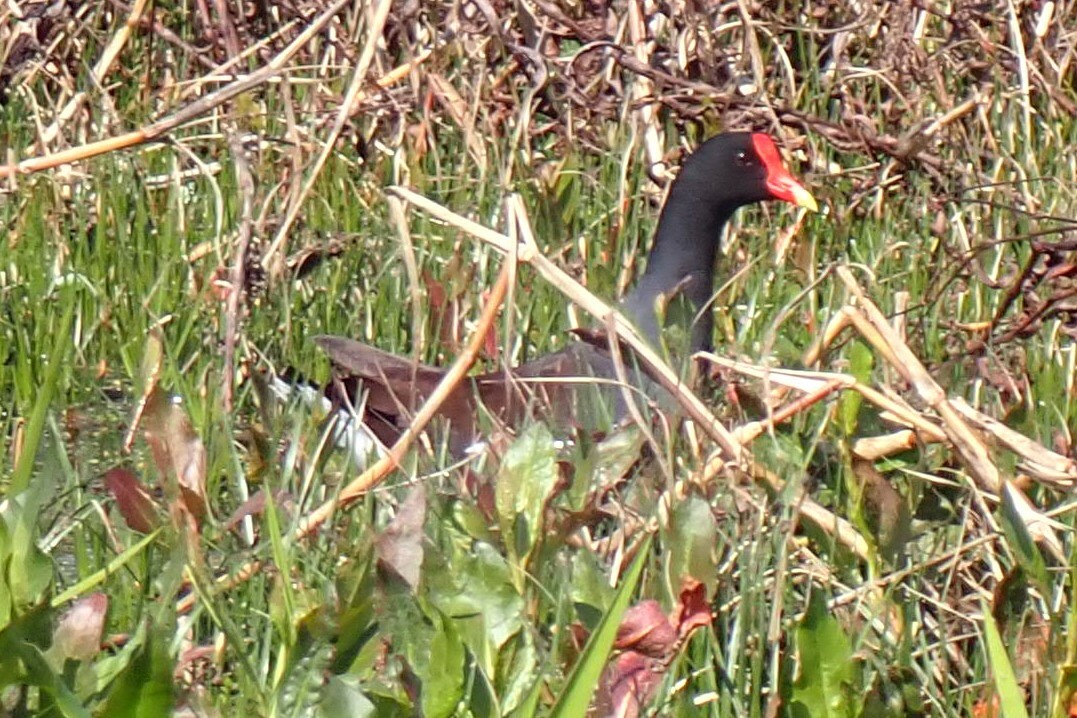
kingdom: Animalia
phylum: Chordata
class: Aves
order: Gruiformes
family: Rallidae
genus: Gallinula
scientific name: Gallinula chloropus
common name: Common moorhen
